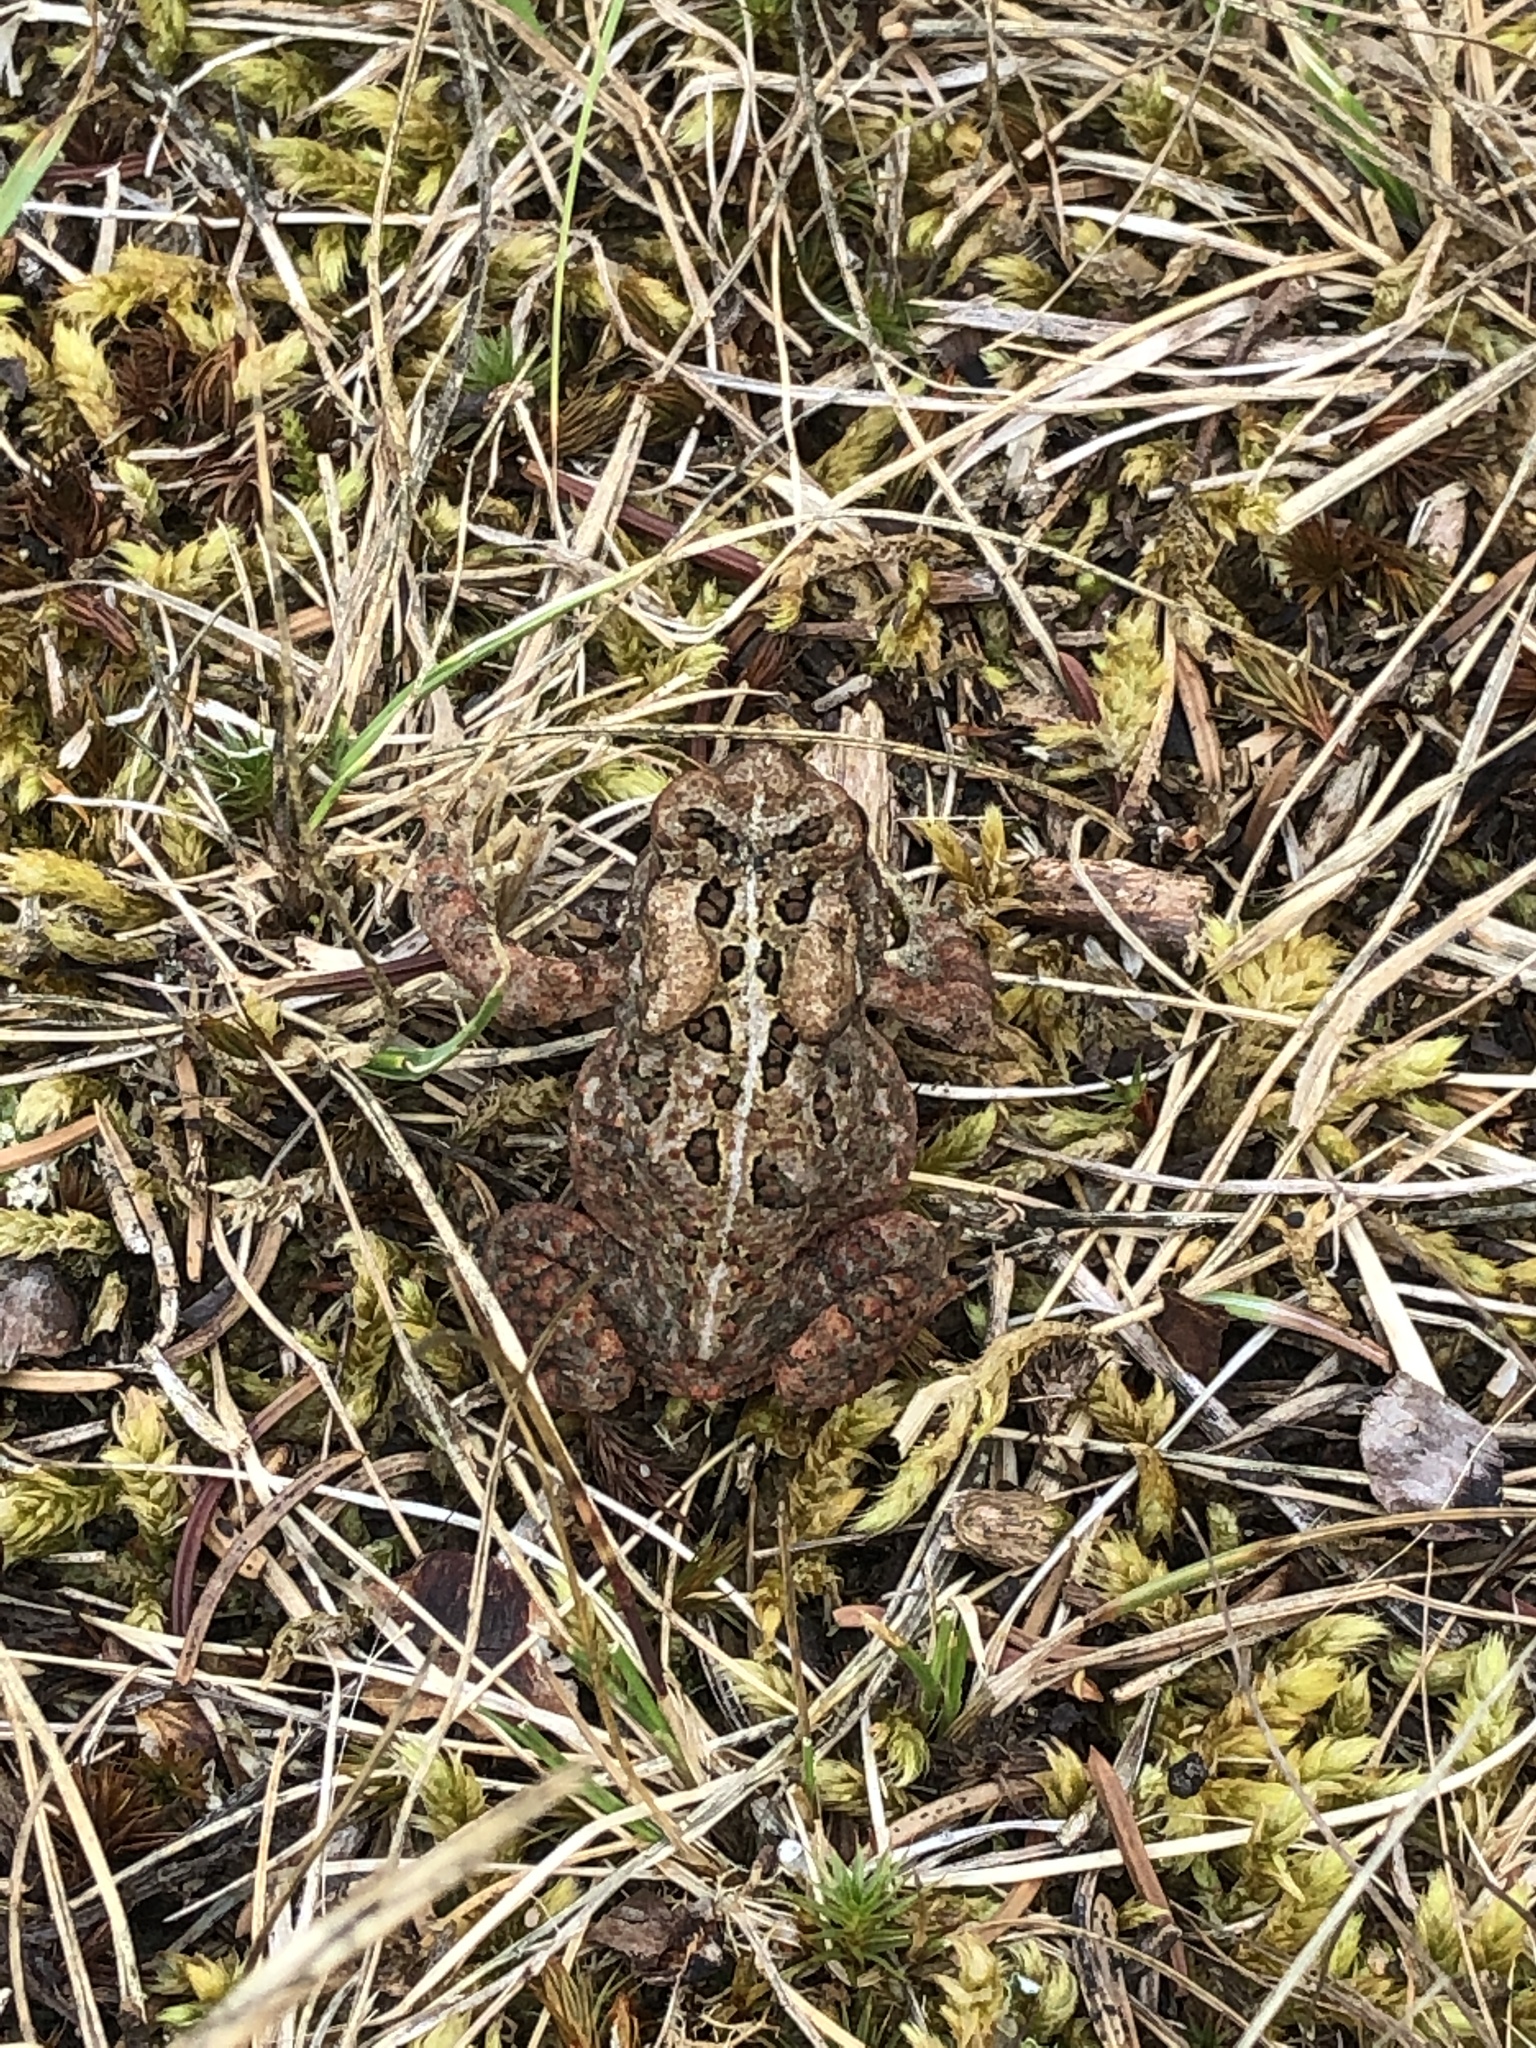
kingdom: Animalia
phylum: Chordata
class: Amphibia
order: Anura
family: Bufonidae
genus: Anaxyrus
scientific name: Anaxyrus americanus
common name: American toad
